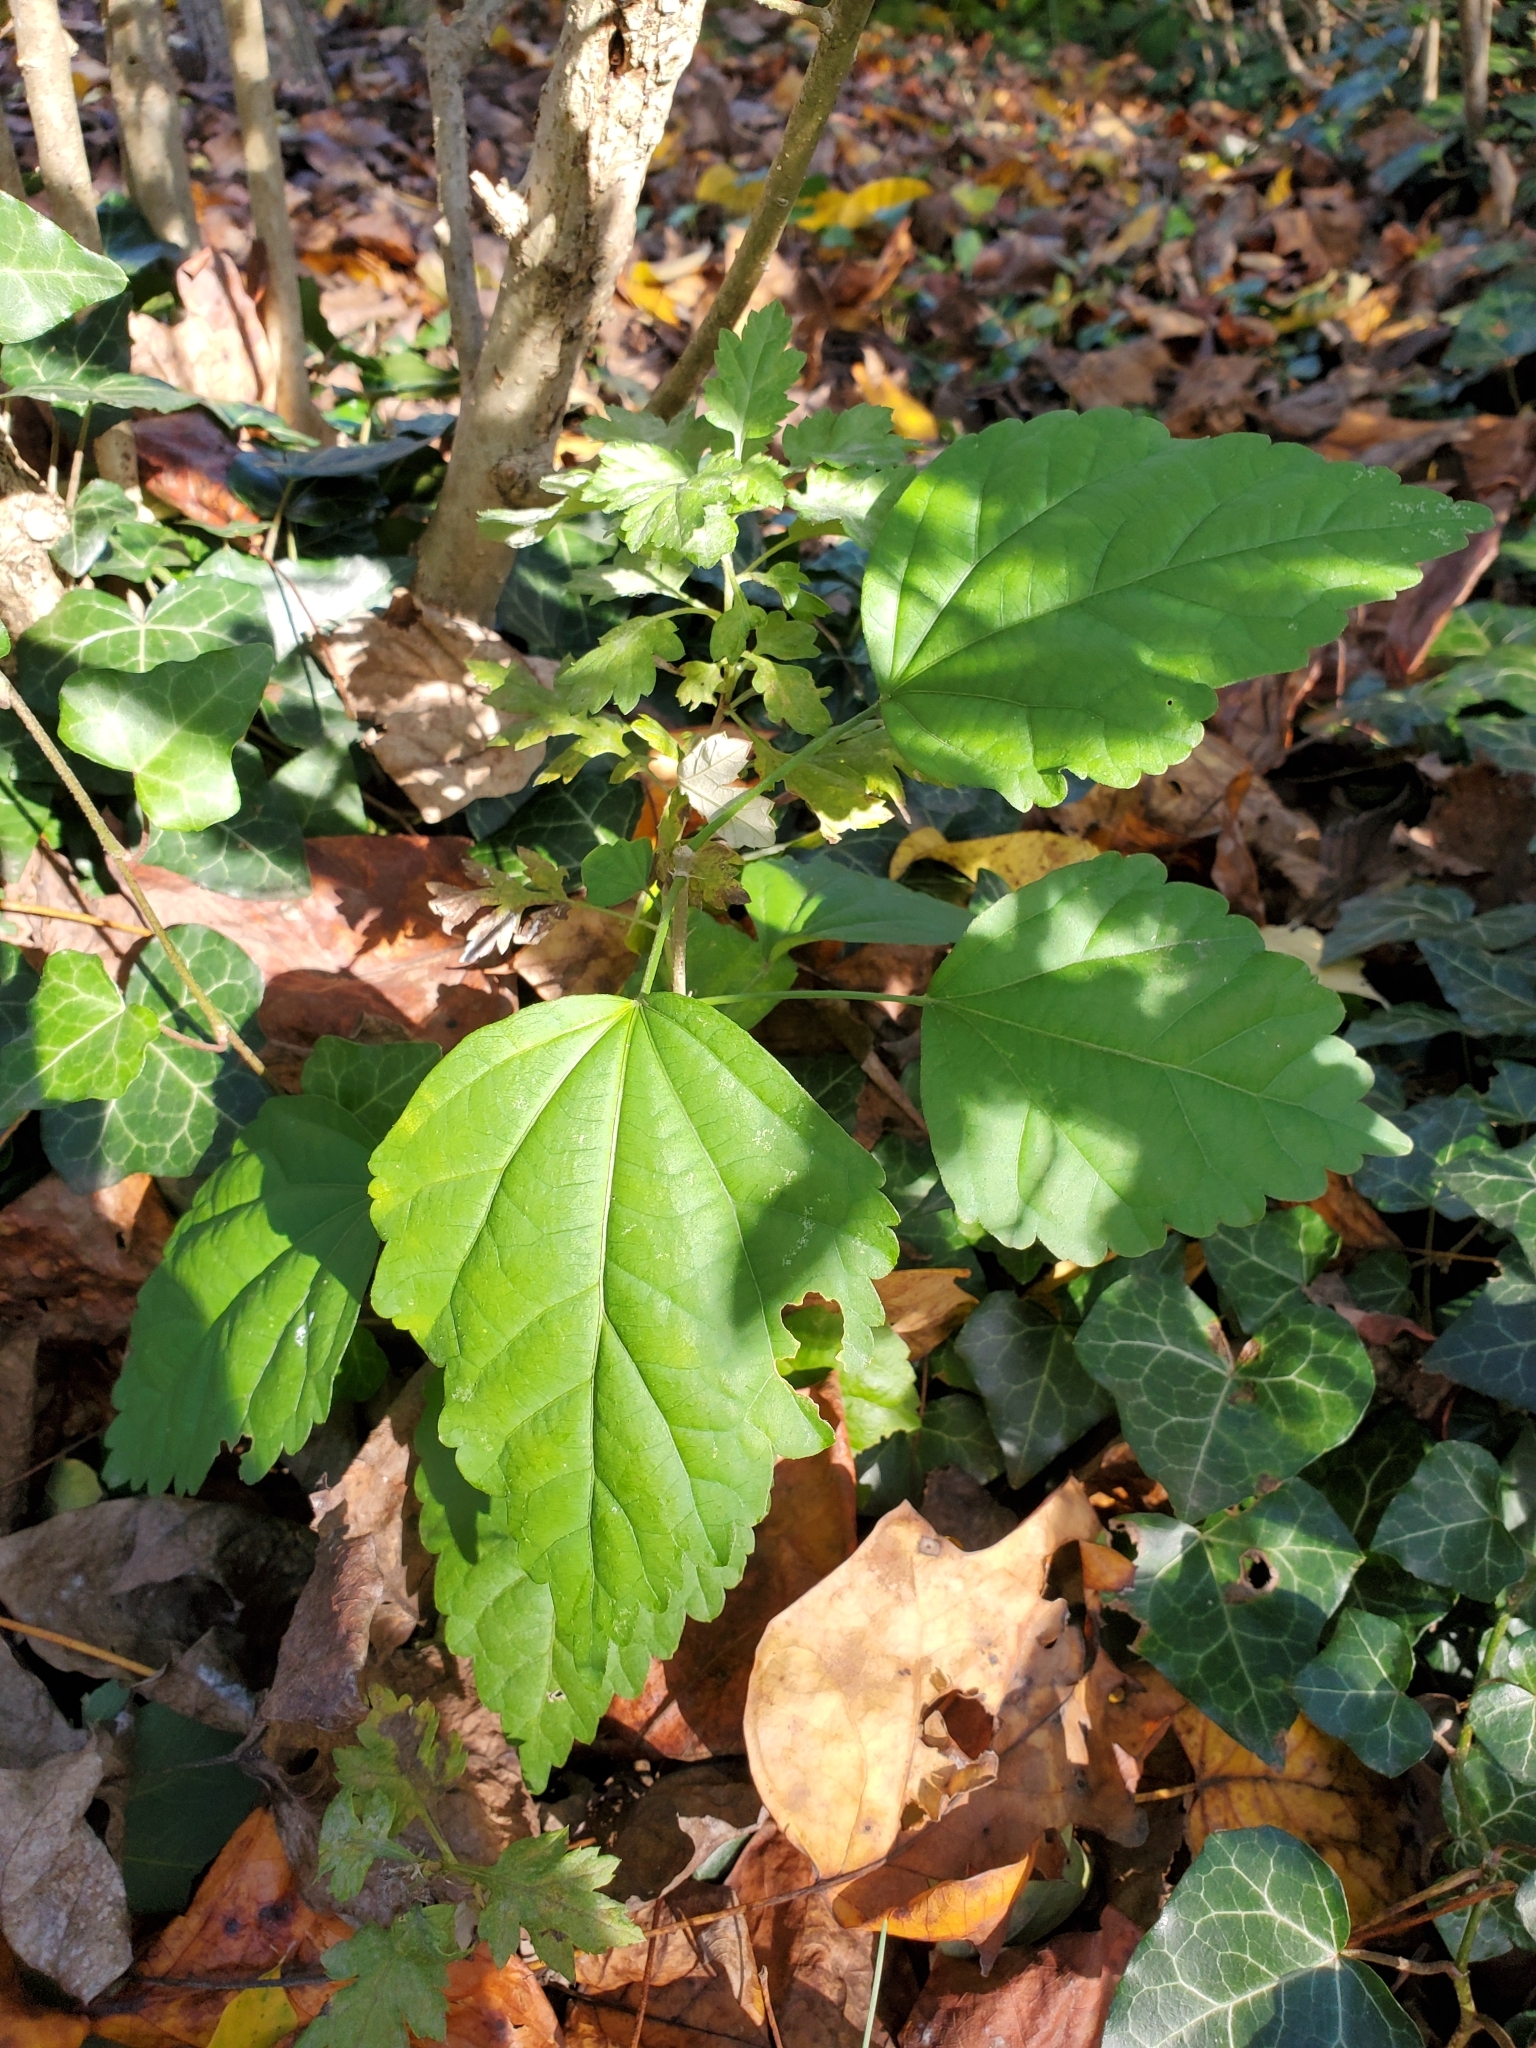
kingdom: Plantae
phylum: Tracheophyta
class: Magnoliopsida
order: Malvales
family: Malvaceae
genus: Hibiscus
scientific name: Hibiscus syriacus
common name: Syrian ketmia
